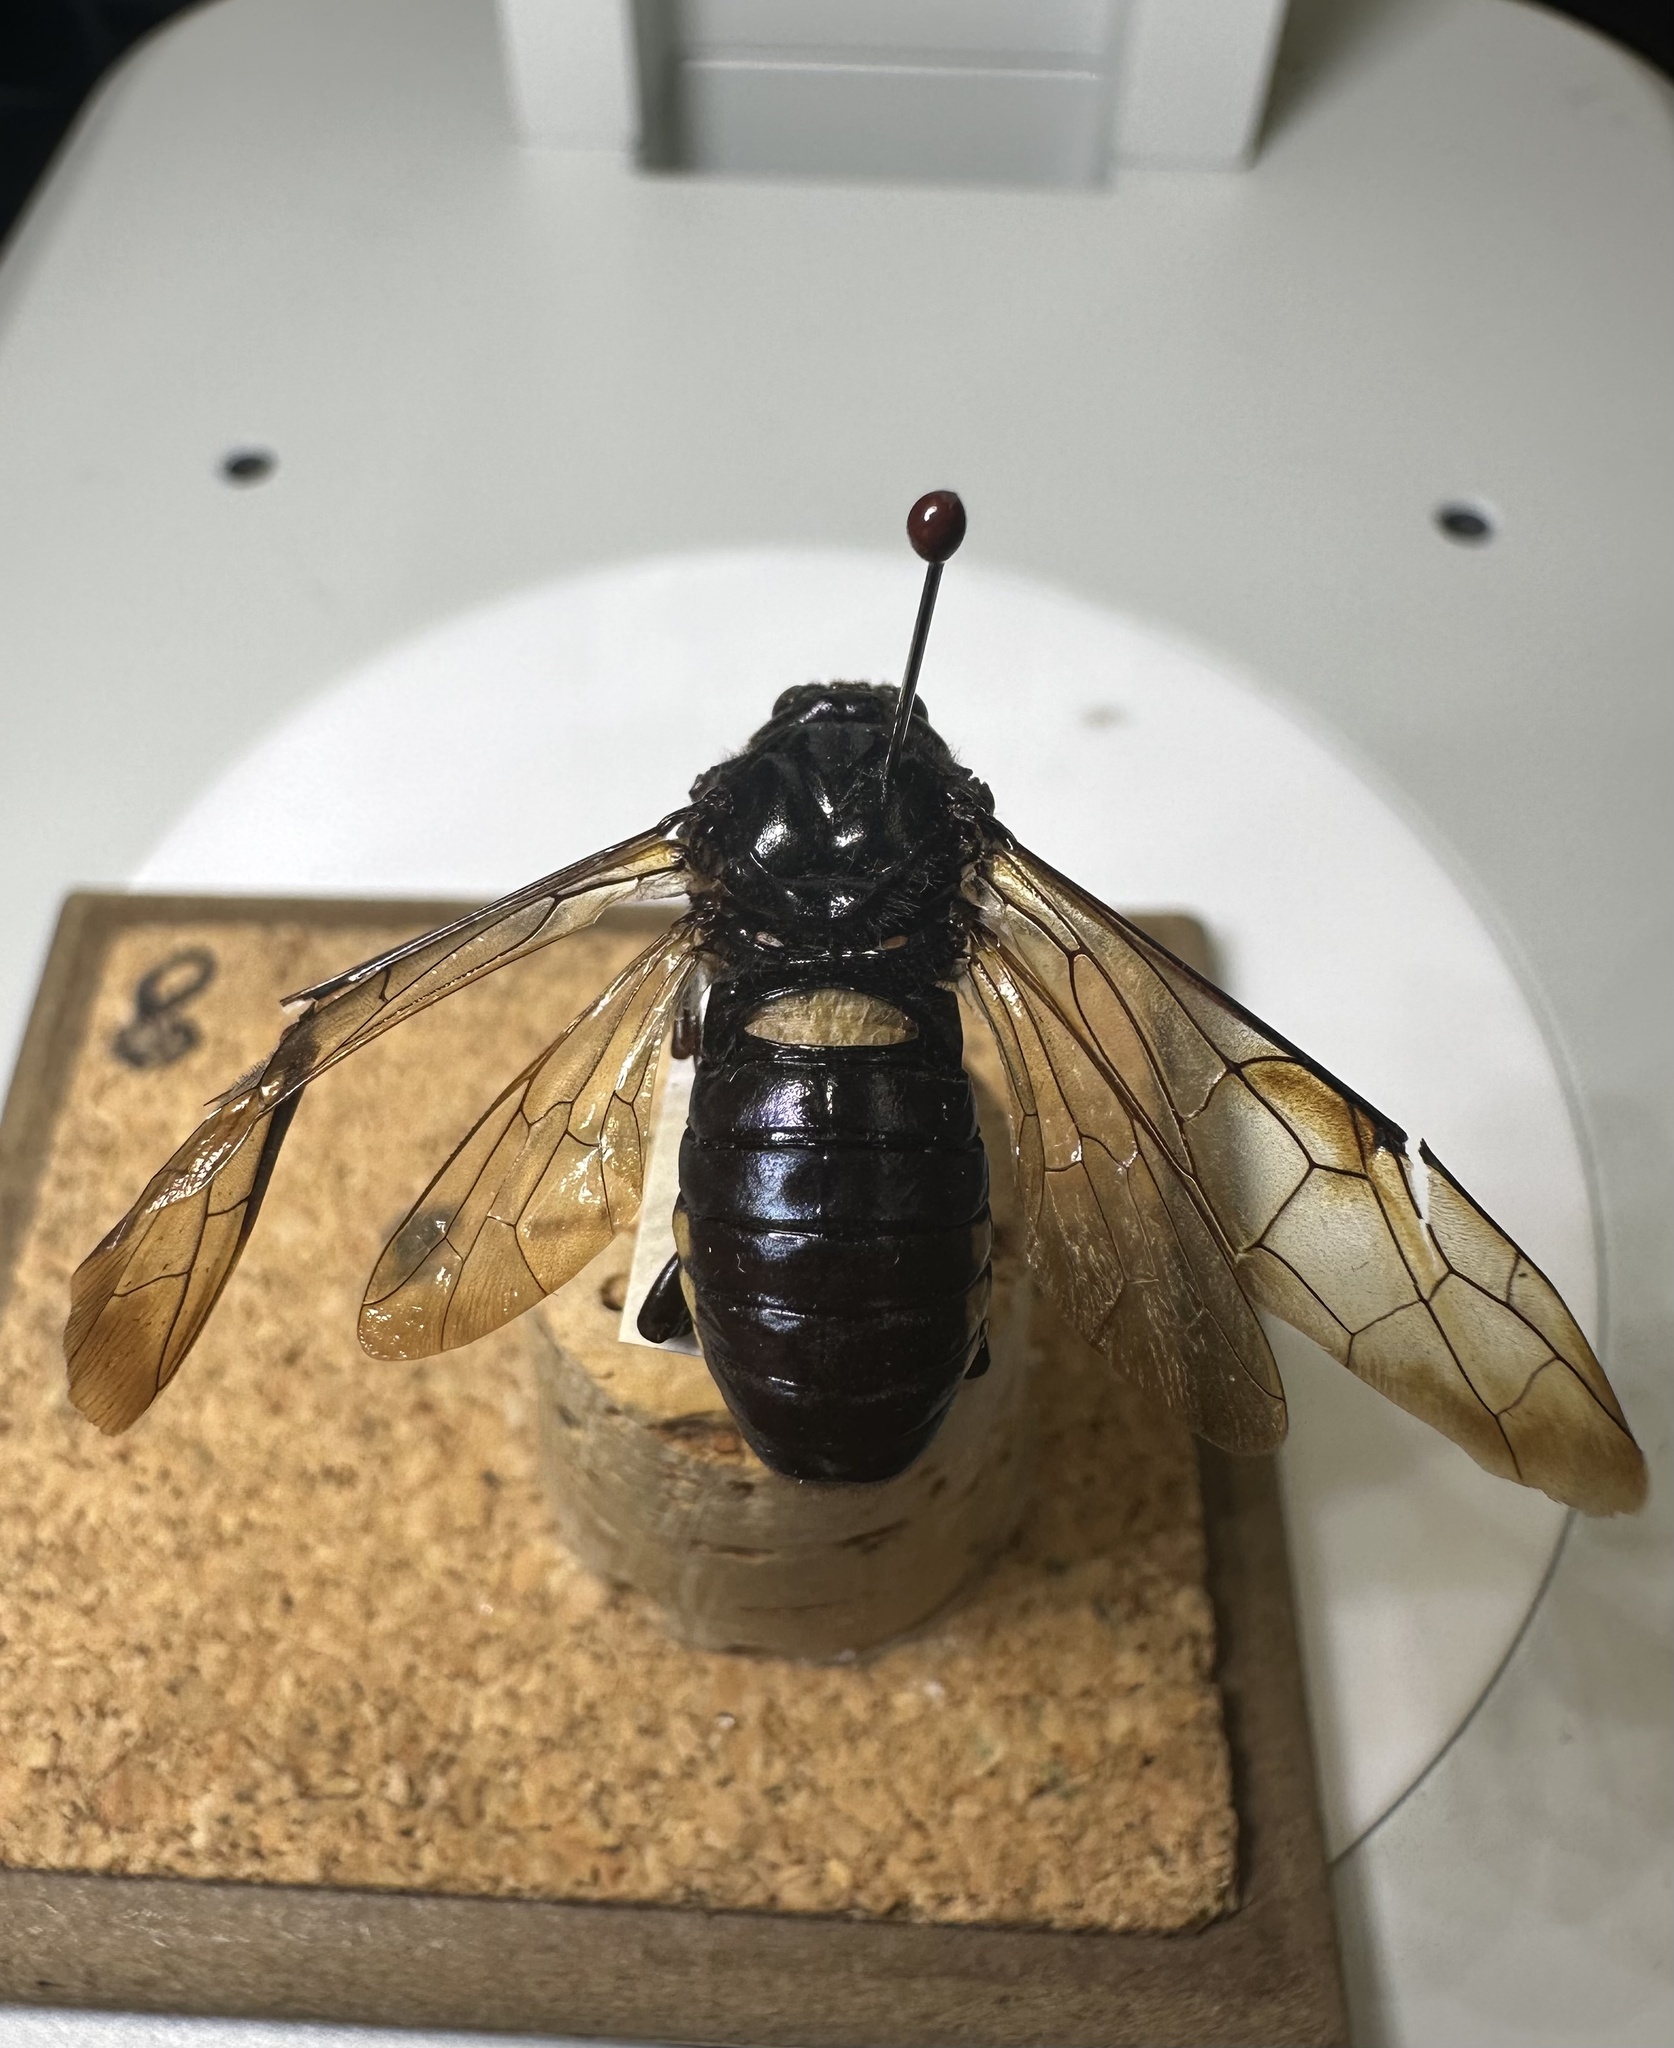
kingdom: Animalia
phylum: Arthropoda
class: Insecta
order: Hymenoptera
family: Cimbicidae
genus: Cimbex
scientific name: Cimbex americana
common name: Elm sawfly
